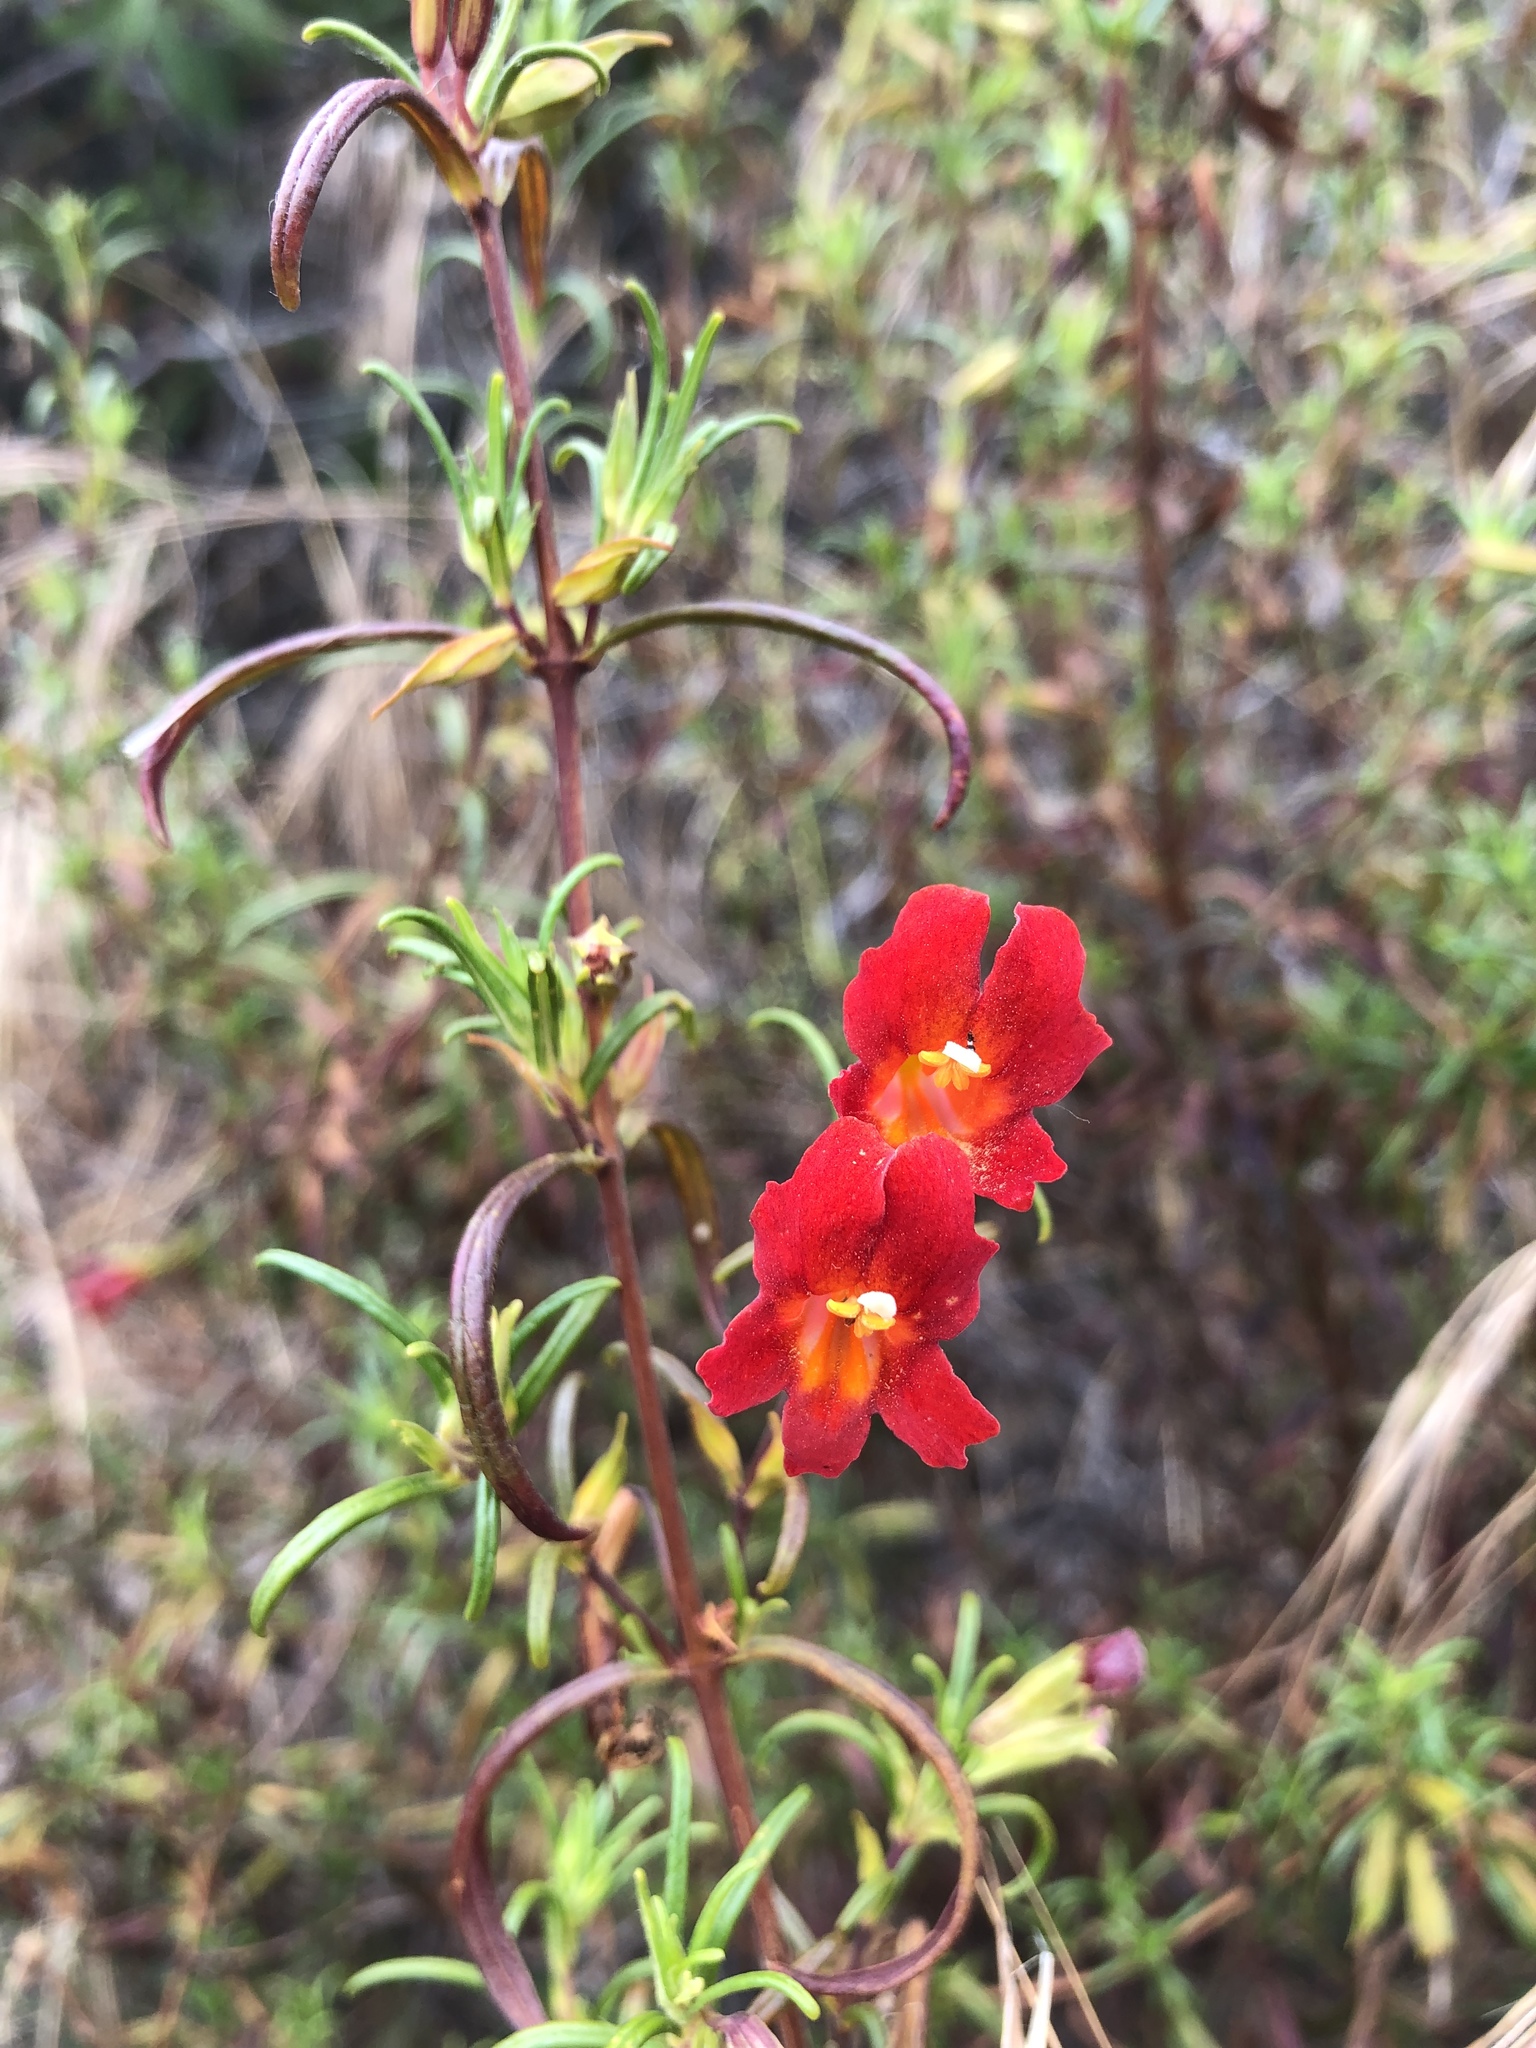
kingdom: Plantae
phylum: Tracheophyta
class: Magnoliopsida
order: Lamiales
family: Phrymaceae
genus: Diplacus
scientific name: Diplacus puniceus
